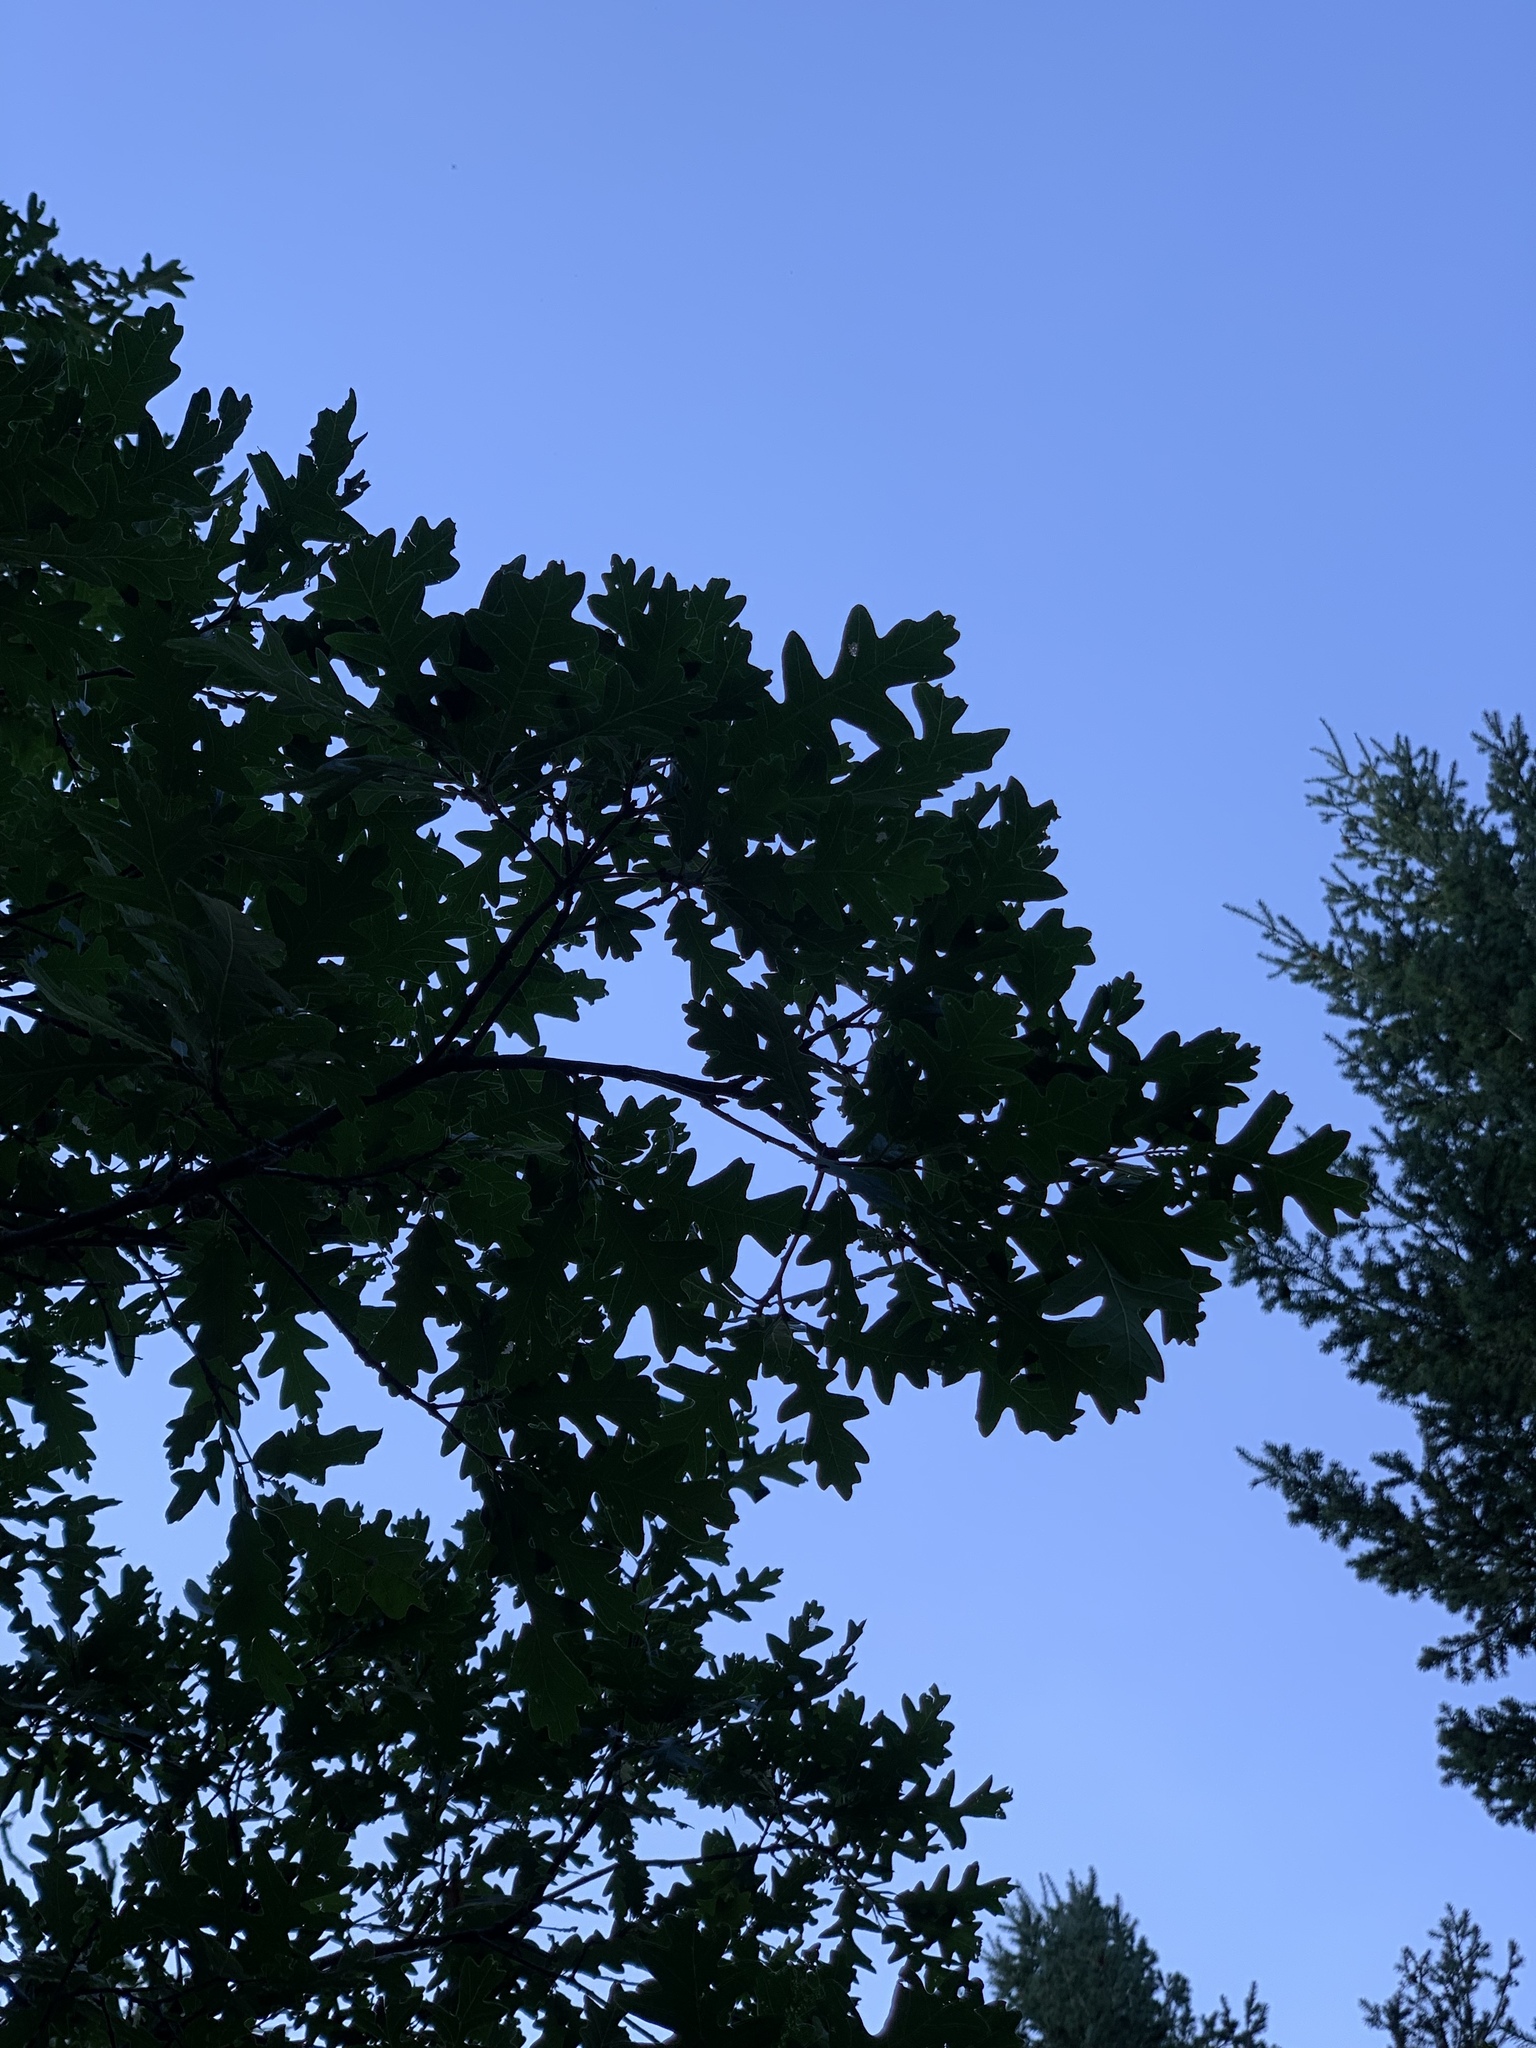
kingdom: Plantae
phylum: Tracheophyta
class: Magnoliopsida
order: Fagales
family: Fagaceae
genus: Quercus
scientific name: Quercus gambelii
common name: Gambel oak
